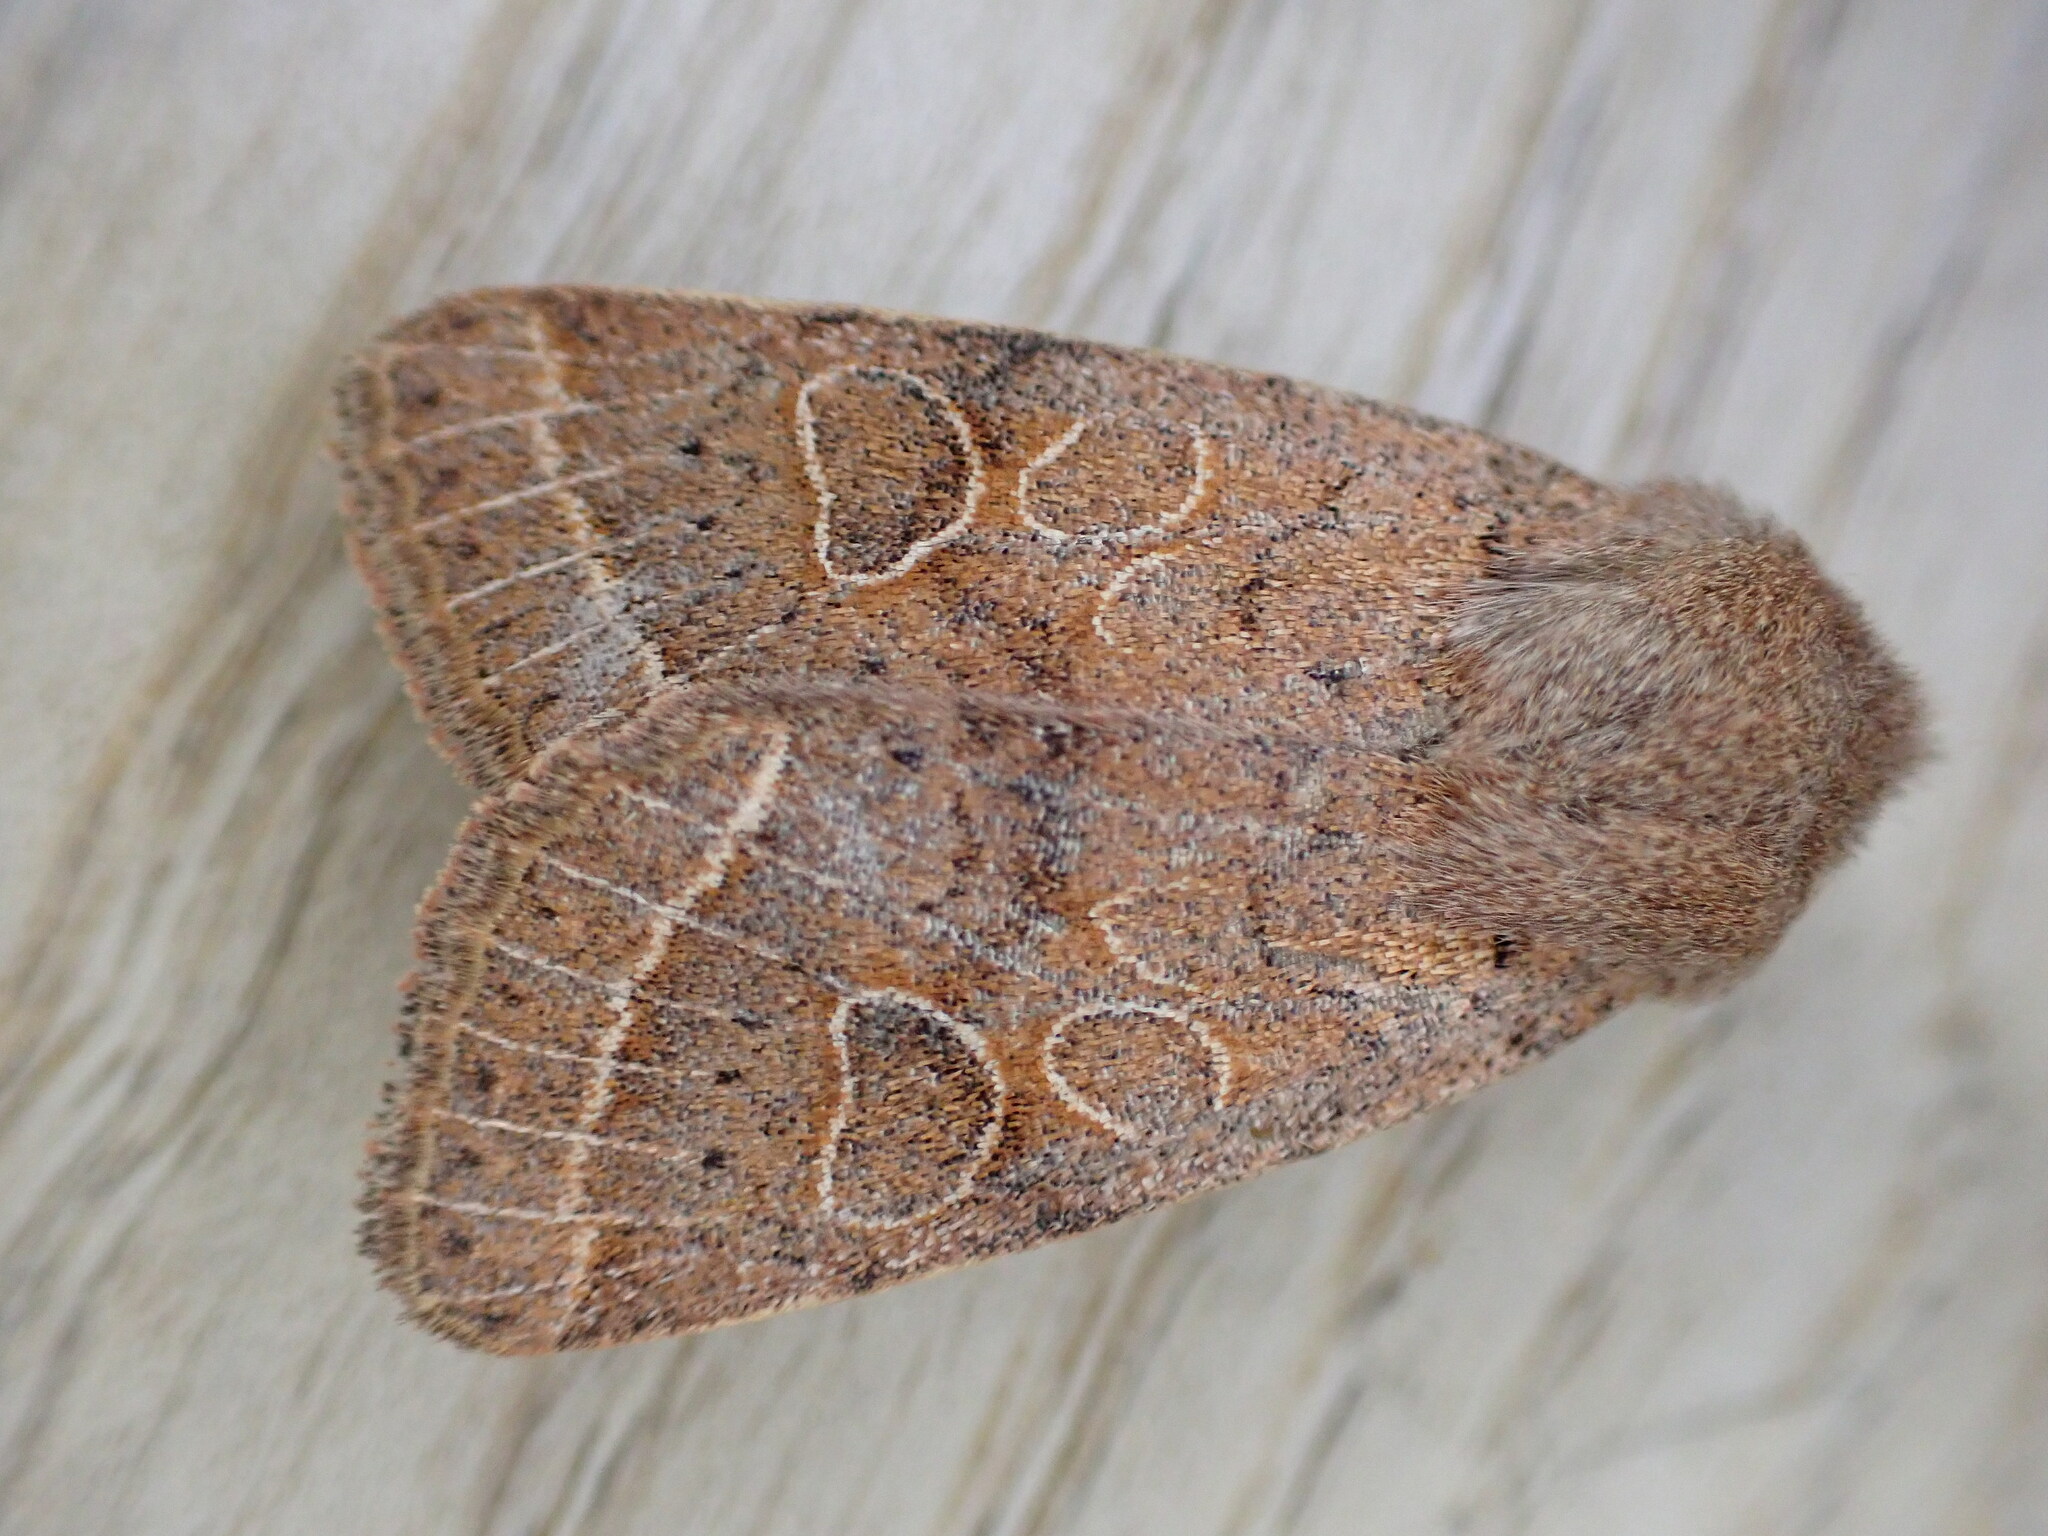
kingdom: Animalia
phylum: Arthropoda
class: Insecta
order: Lepidoptera
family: Noctuidae
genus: Orthosia
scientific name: Orthosia cerasi
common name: Common quaker
